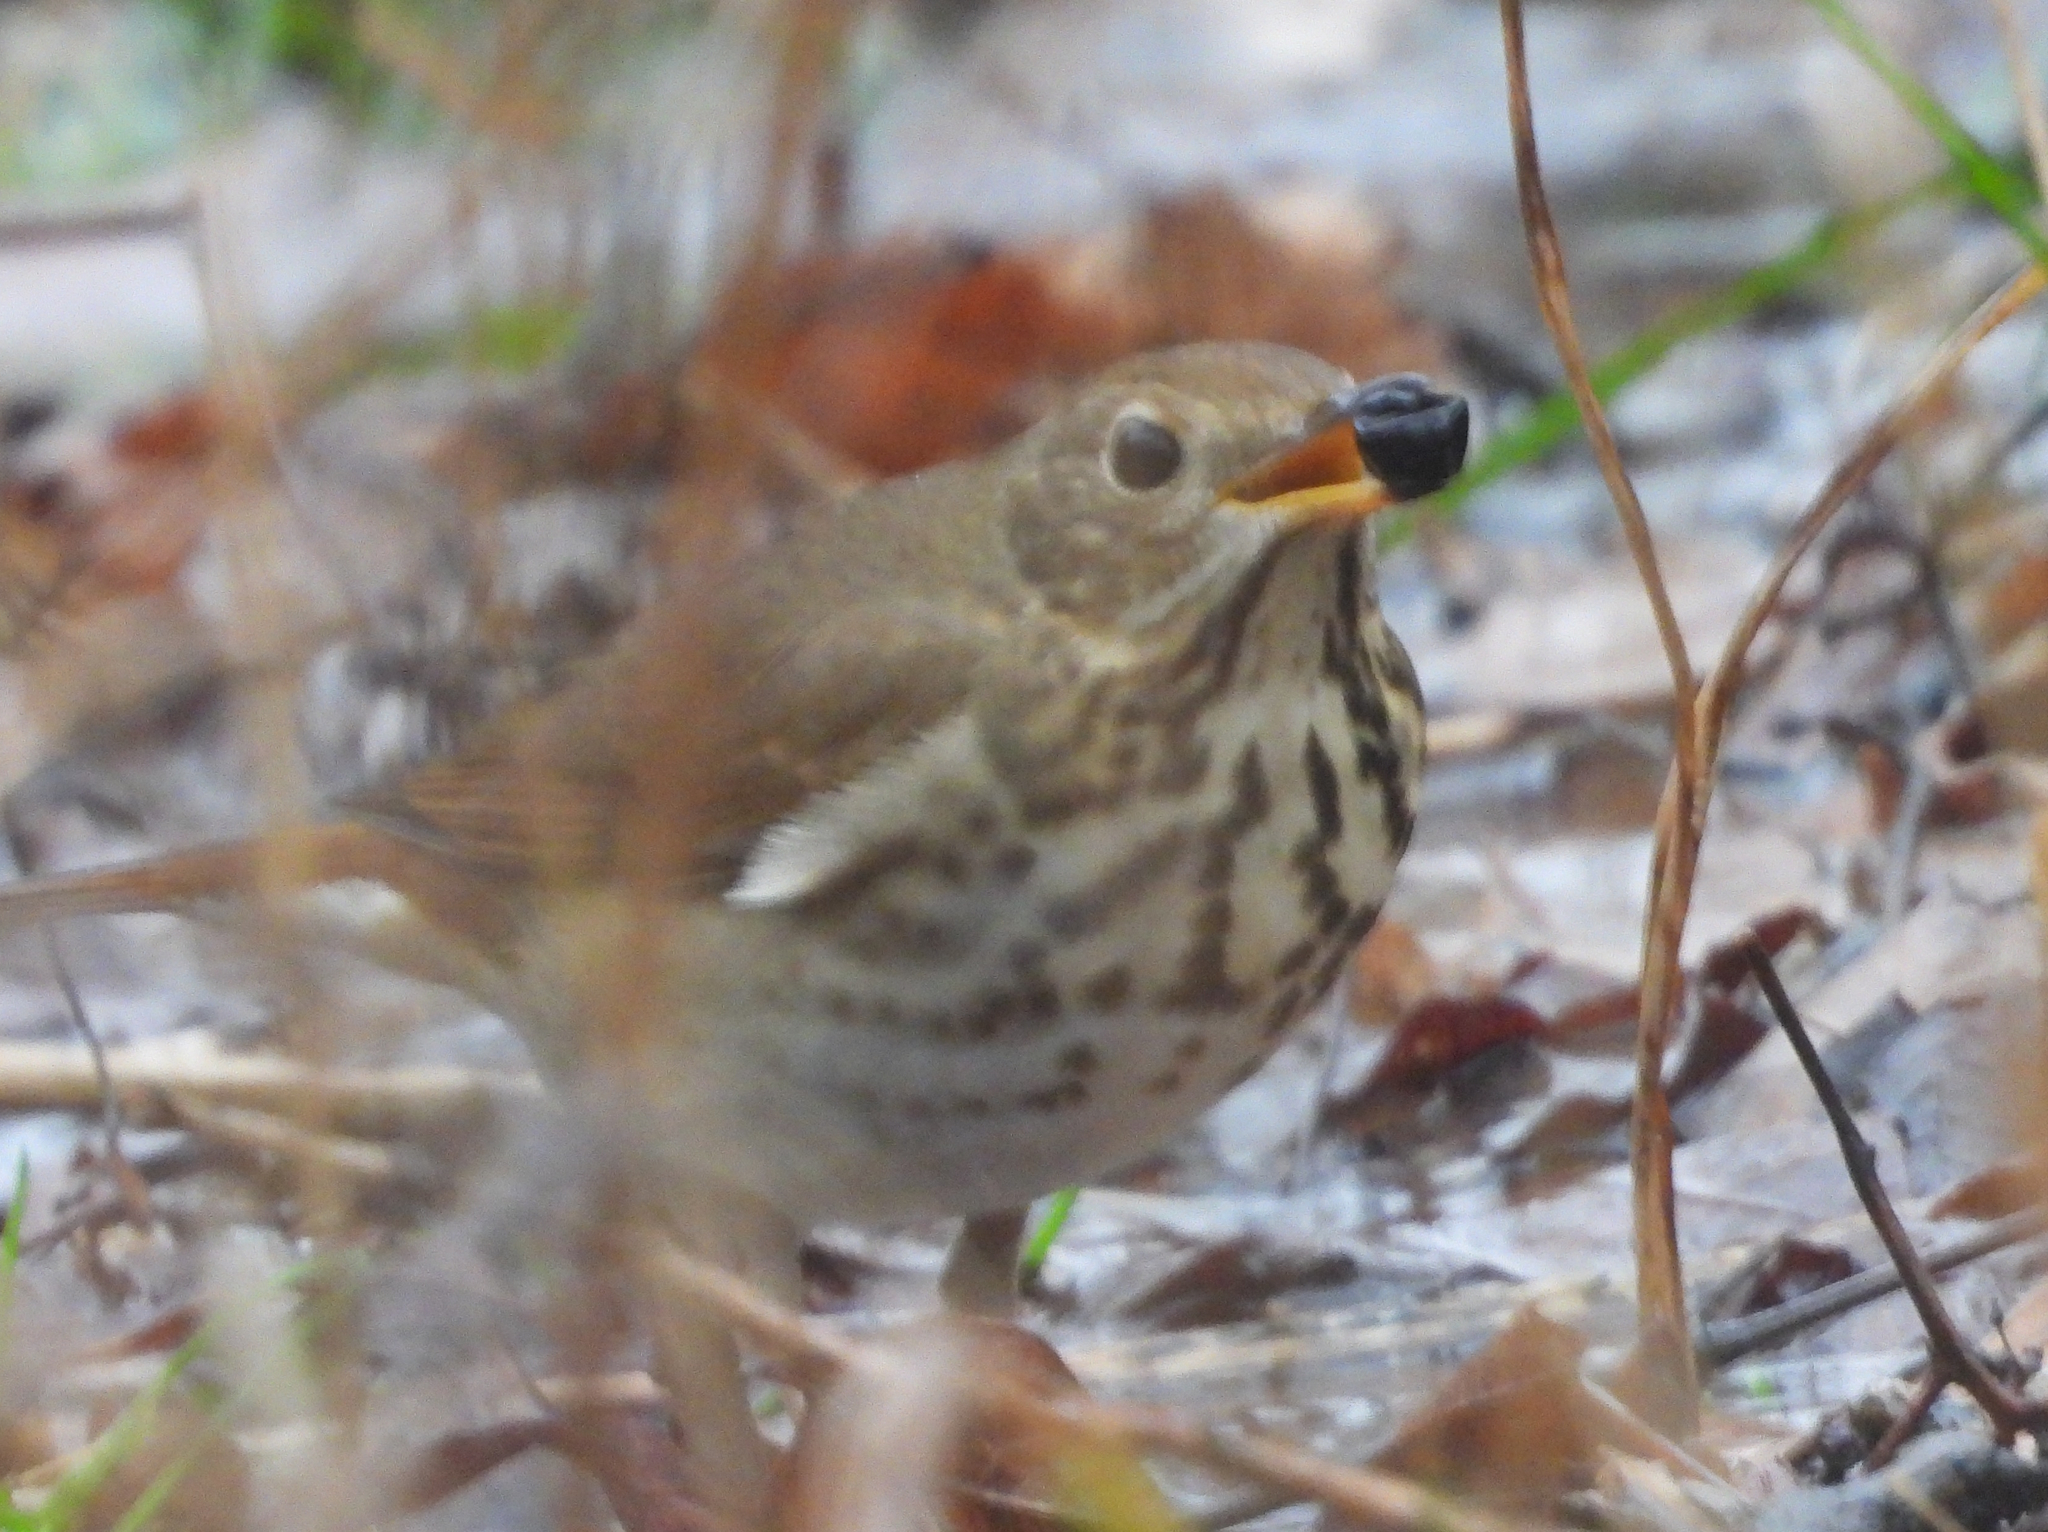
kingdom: Animalia
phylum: Chordata
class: Aves
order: Passeriformes
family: Turdidae
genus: Catharus
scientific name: Catharus guttatus
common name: Hermit thrush
